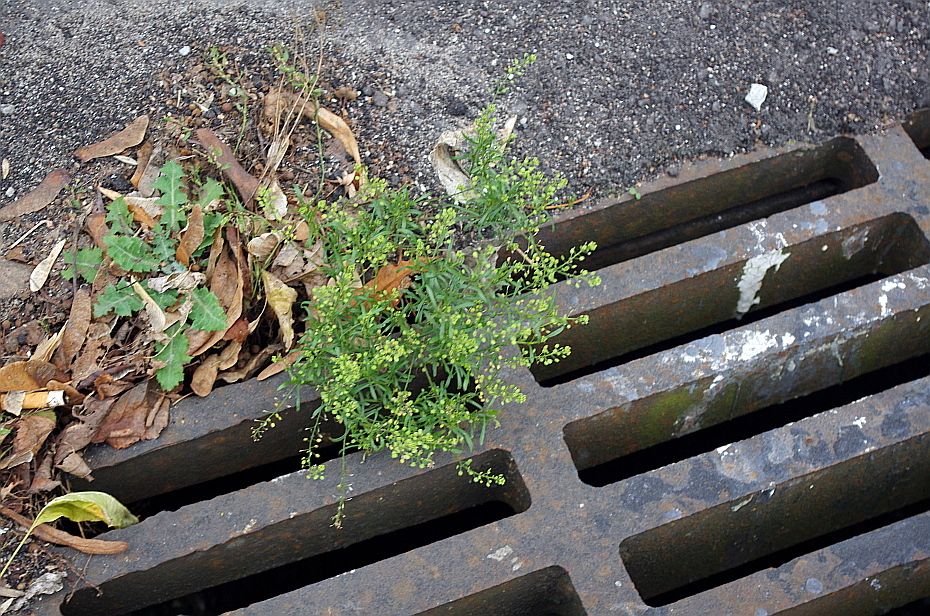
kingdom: Plantae
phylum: Tracheophyta
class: Magnoliopsida
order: Brassicales
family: Brassicaceae
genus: Lepidium
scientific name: Lepidium ruderale
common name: Narrow-leaved pepperwort
